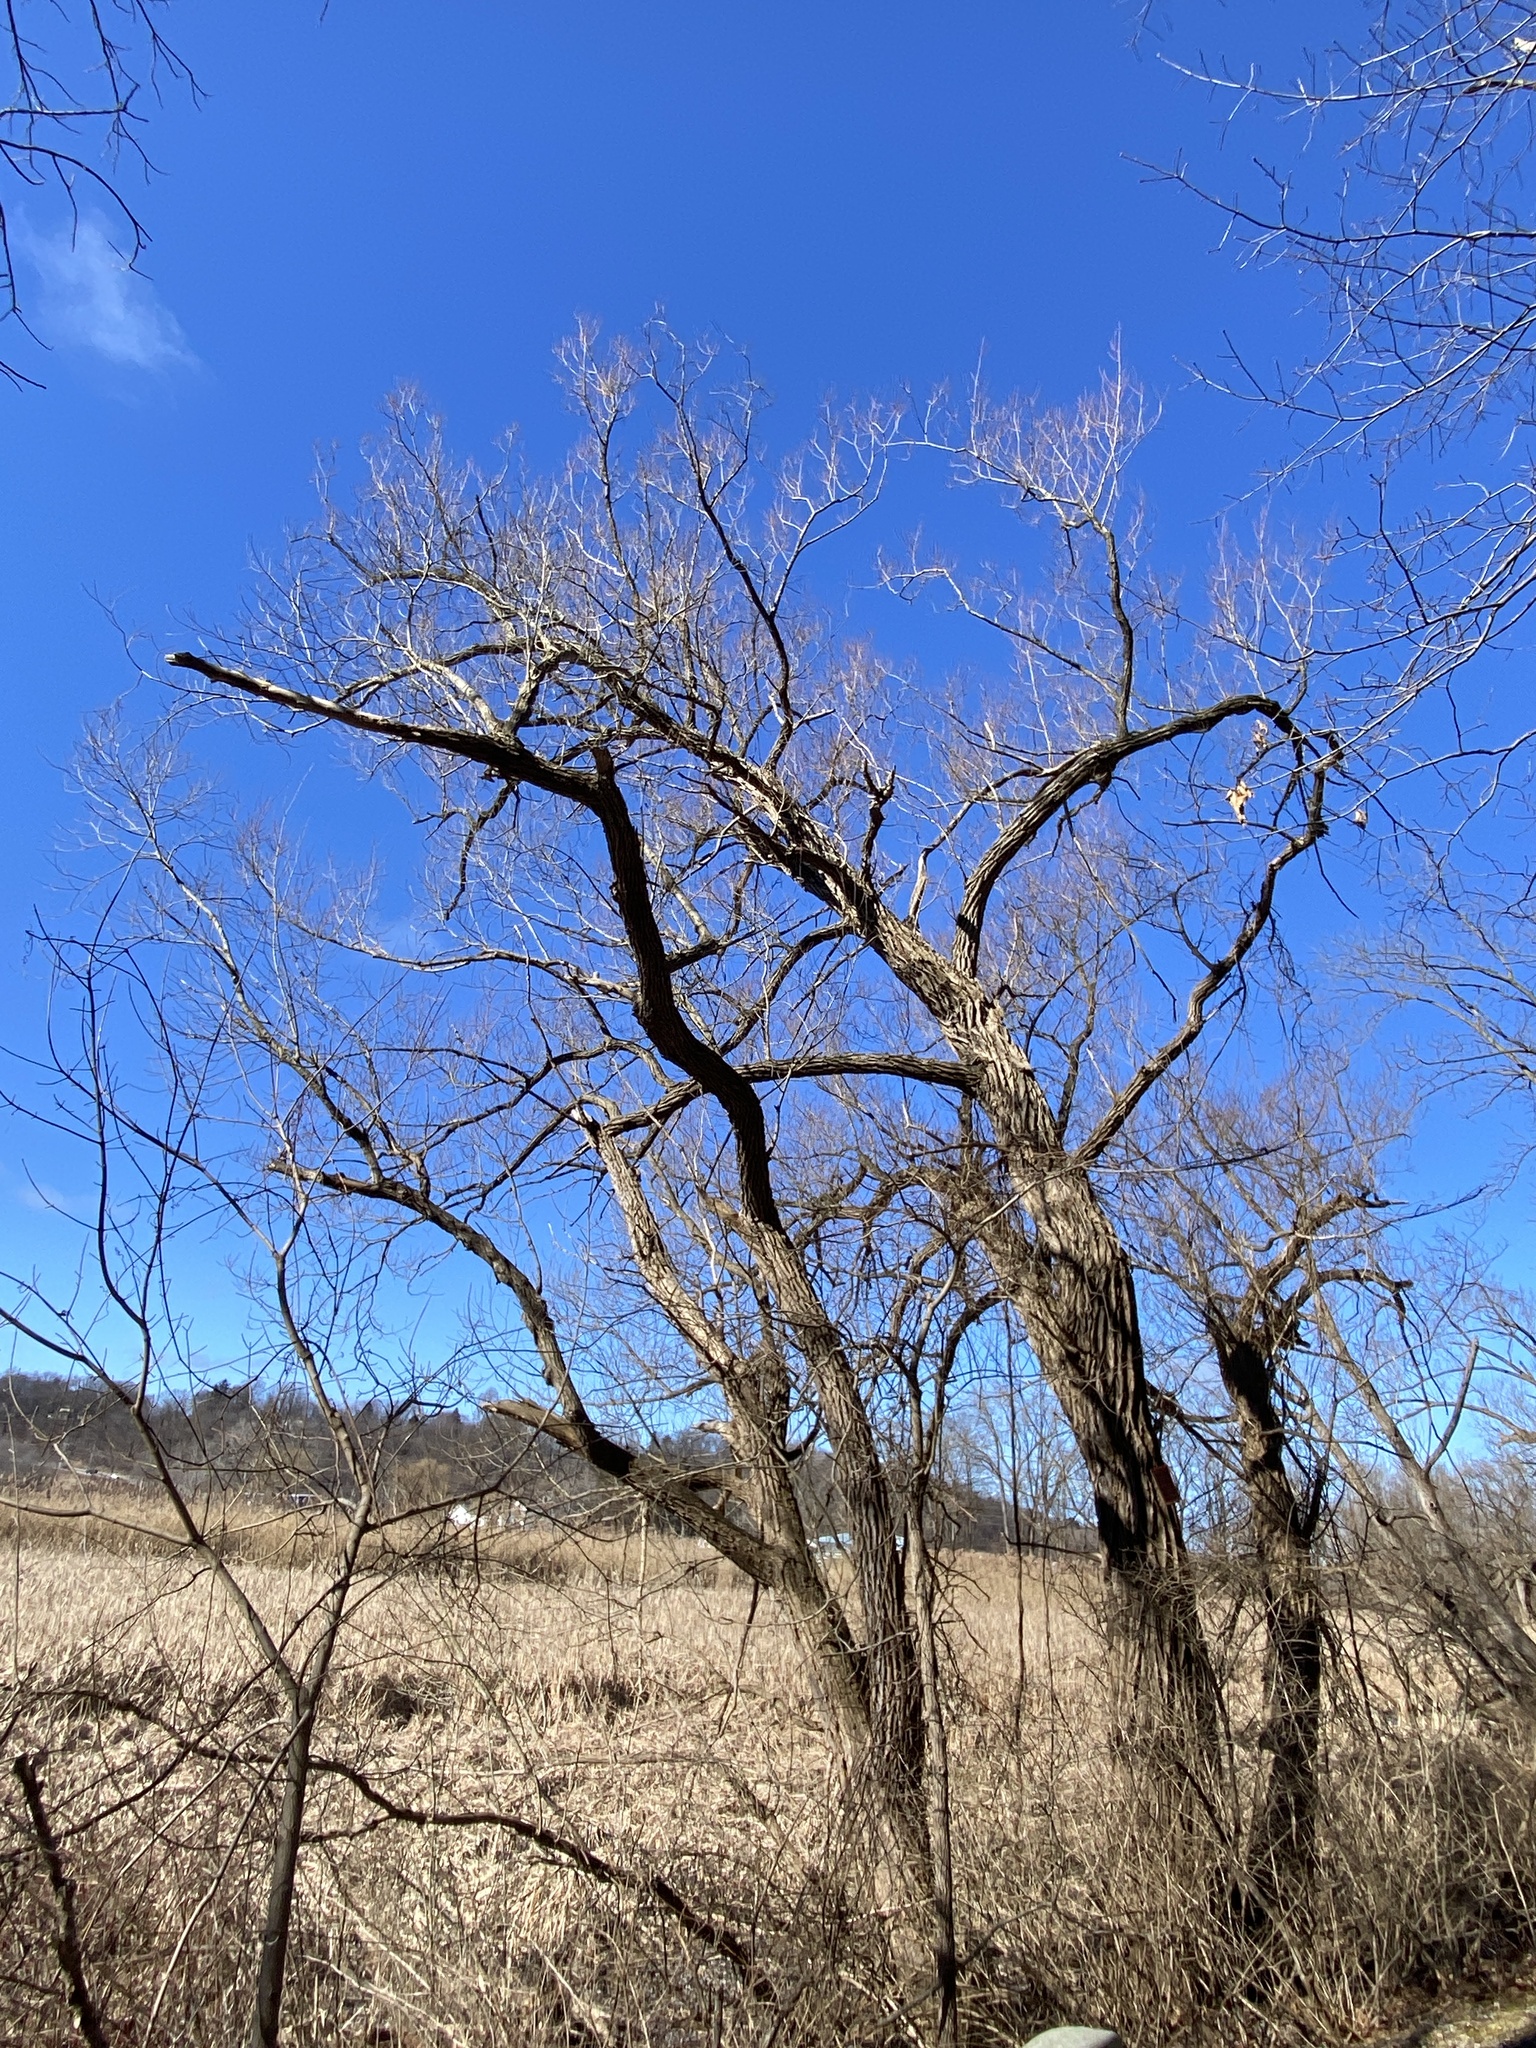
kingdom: Plantae
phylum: Tracheophyta
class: Magnoliopsida
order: Fabales
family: Fabaceae
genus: Robinia
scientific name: Robinia pseudoacacia
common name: Black locust
